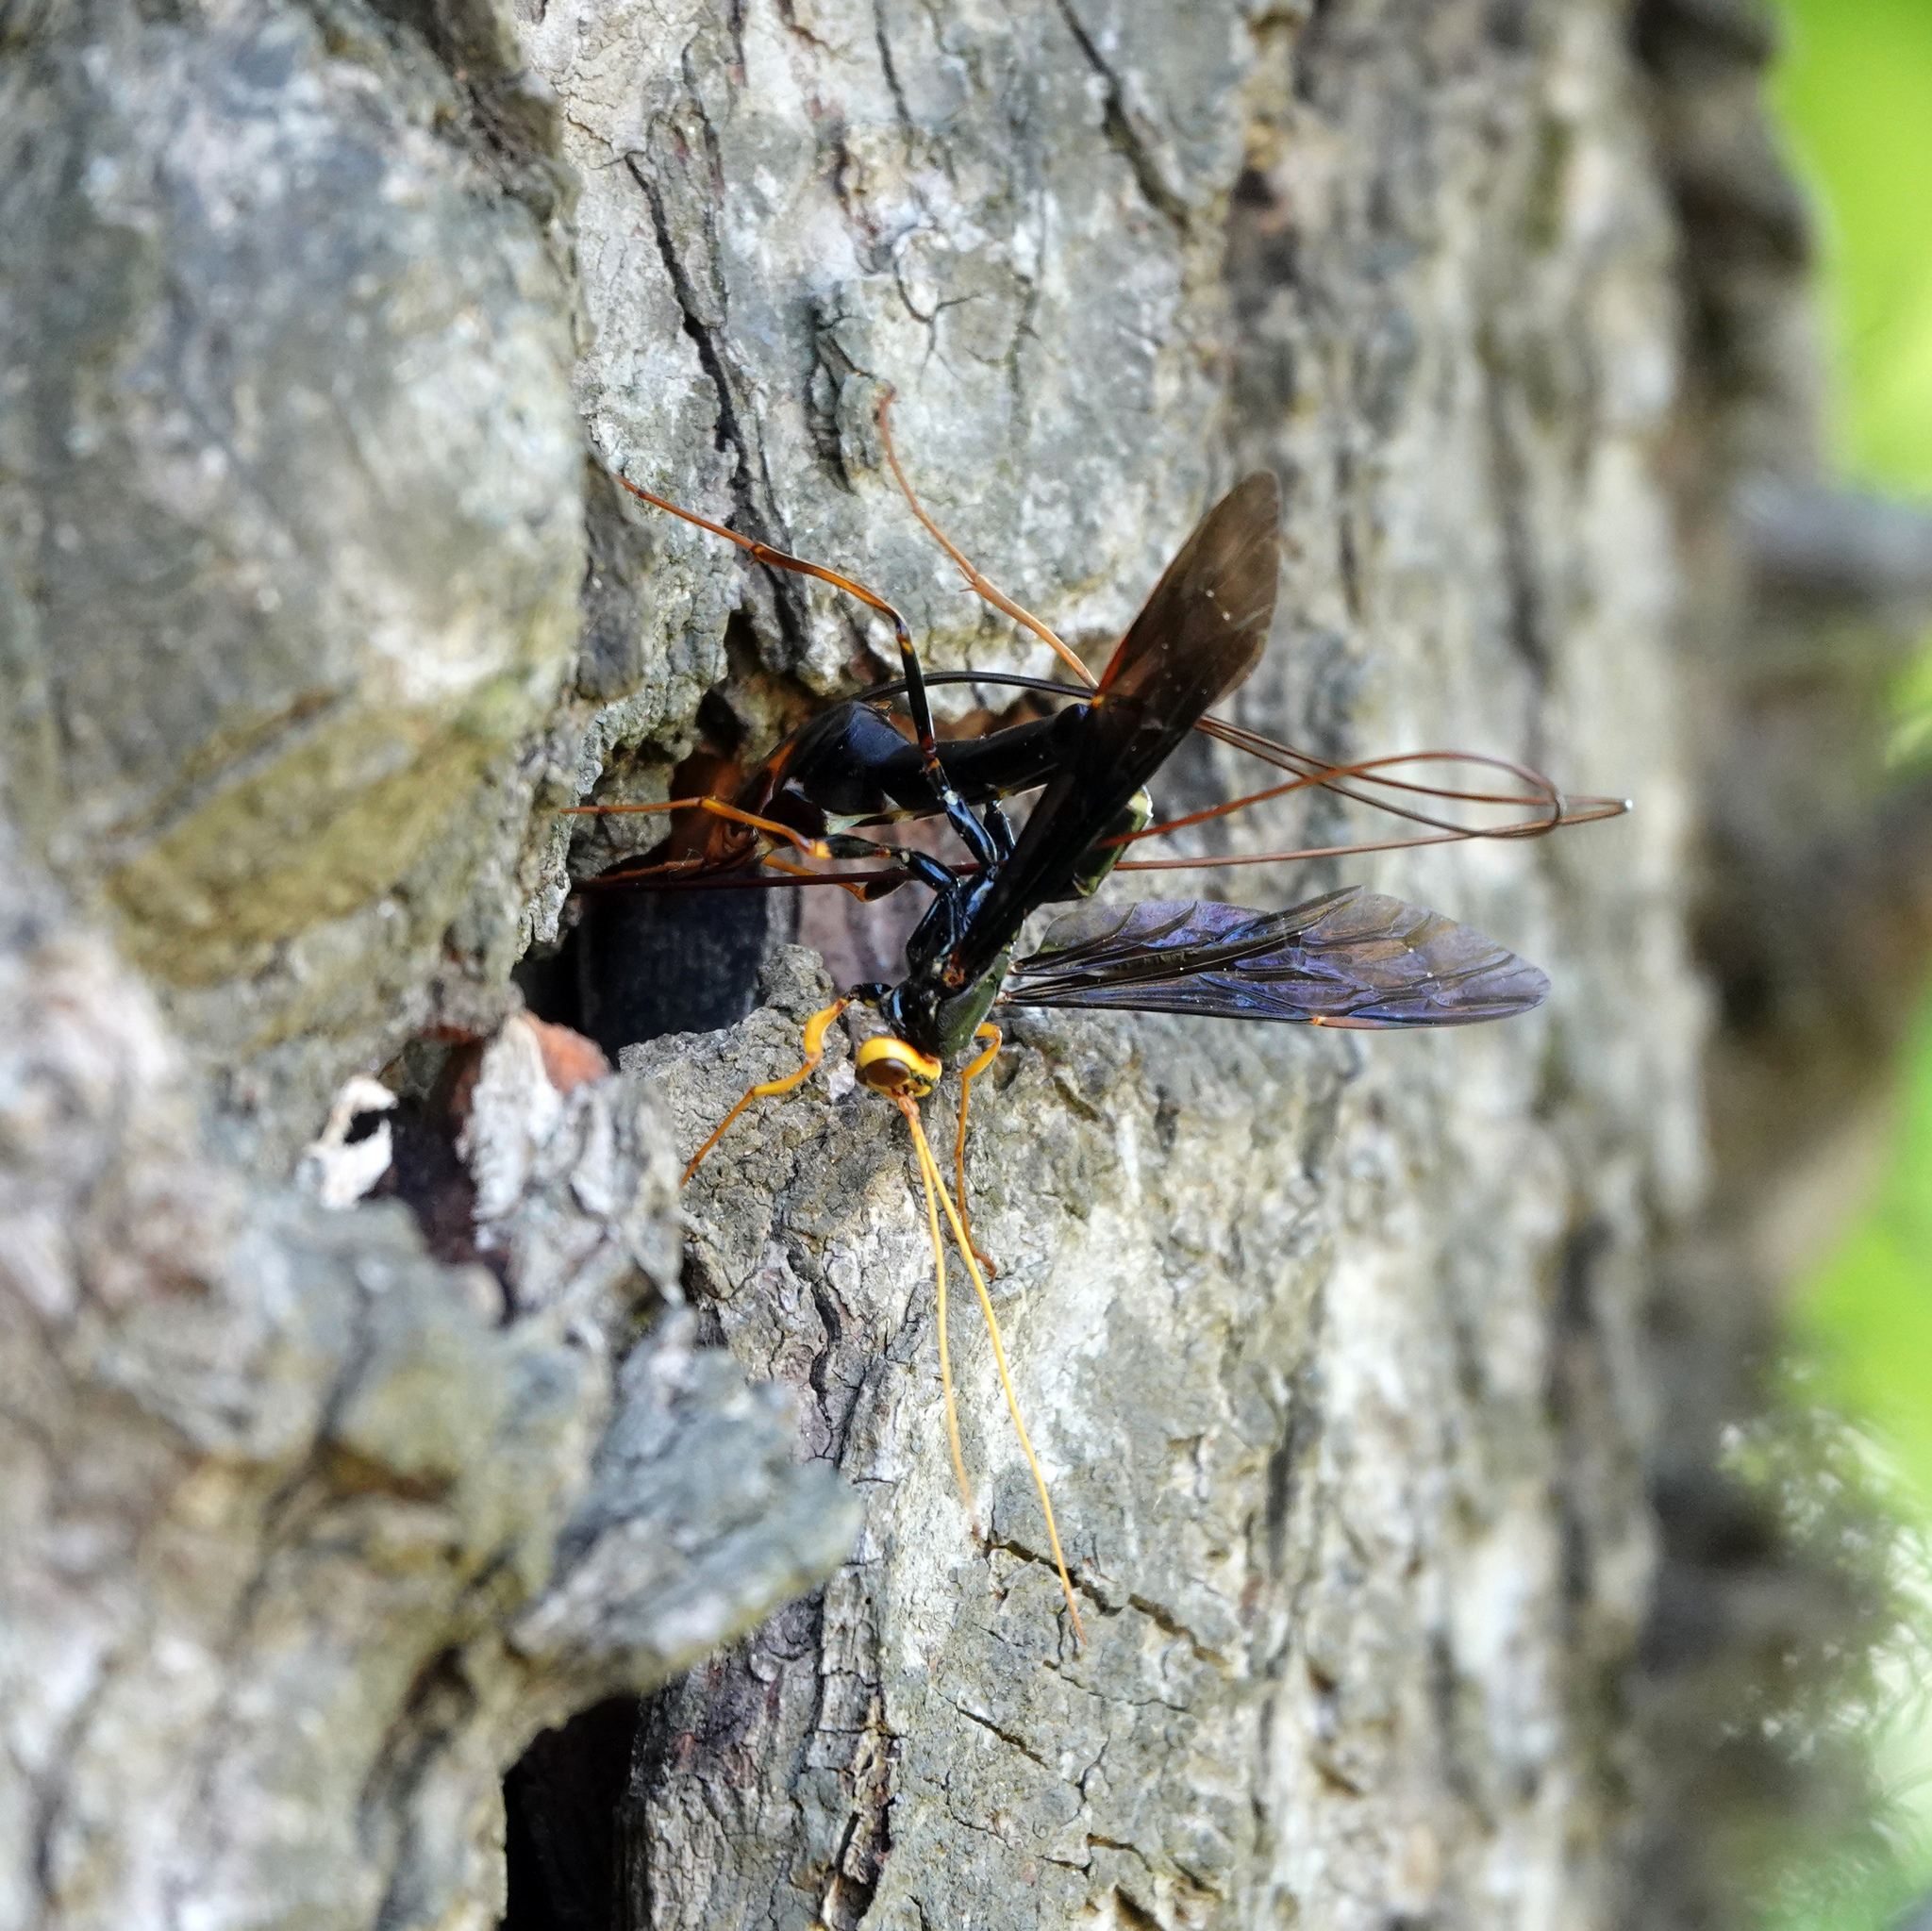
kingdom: Animalia
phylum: Arthropoda
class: Insecta
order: Hymenoptera
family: Ichneumonidae
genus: Megarhyssa
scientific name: Megarhyssa atrata
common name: Black giant ichneumonid wasp
